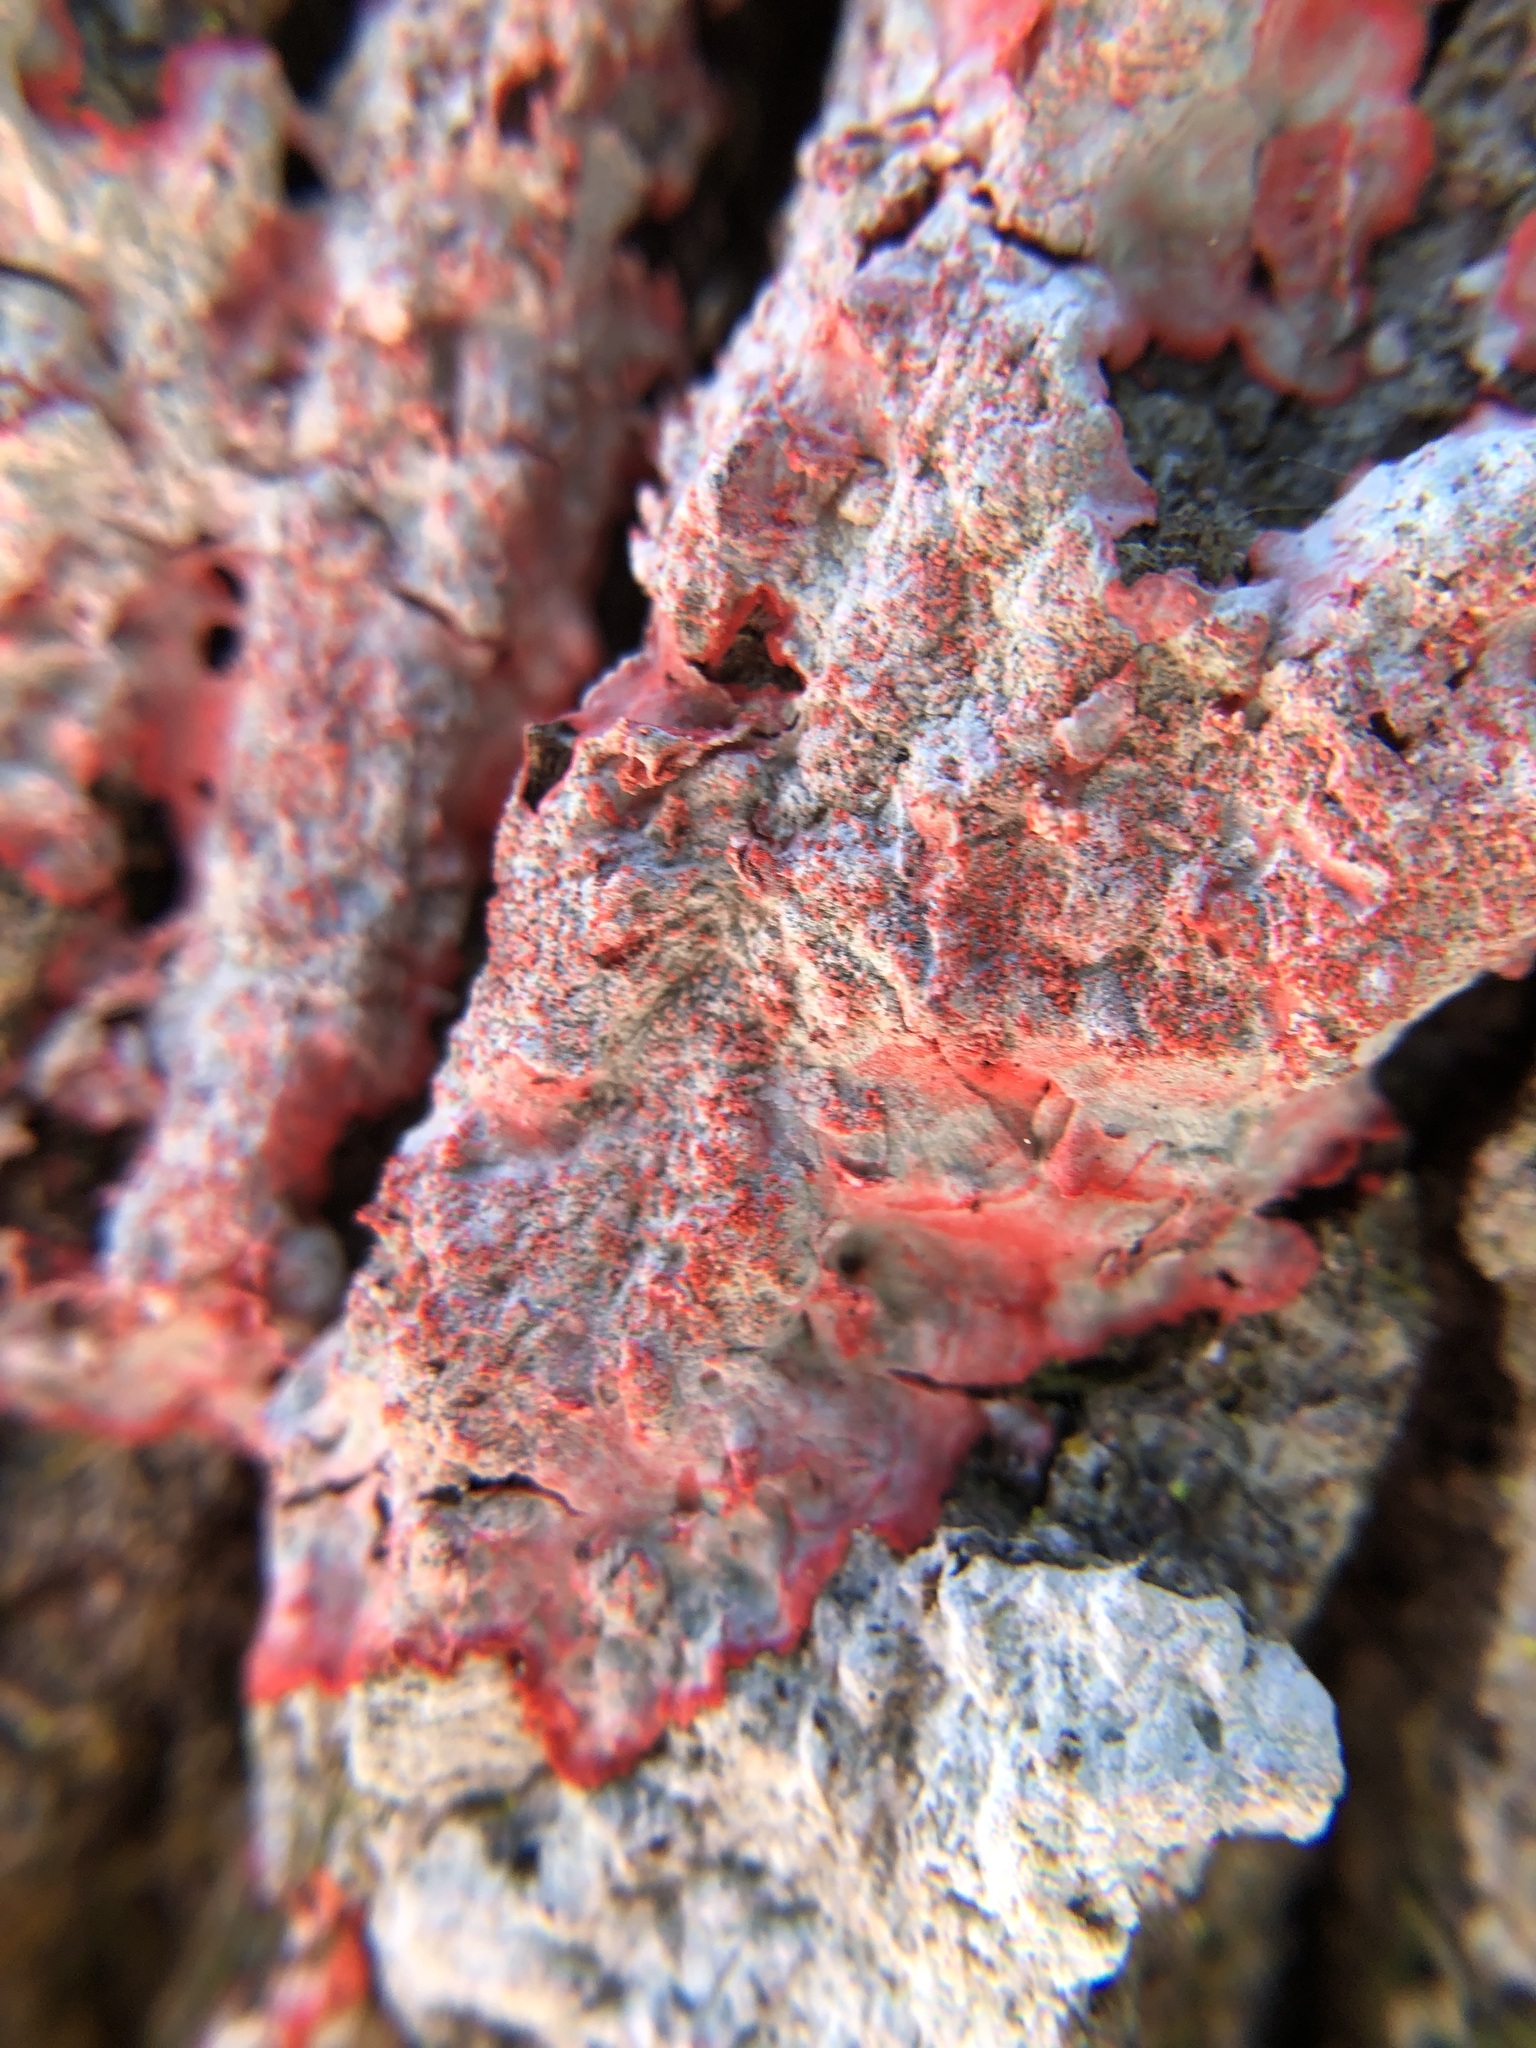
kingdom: Fungi
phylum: Ascomycota
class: Arthoniomycetes
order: Arthoniales
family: Arthoniaceae
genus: Herpothallon
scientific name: Herpothallon rubrocinctum
